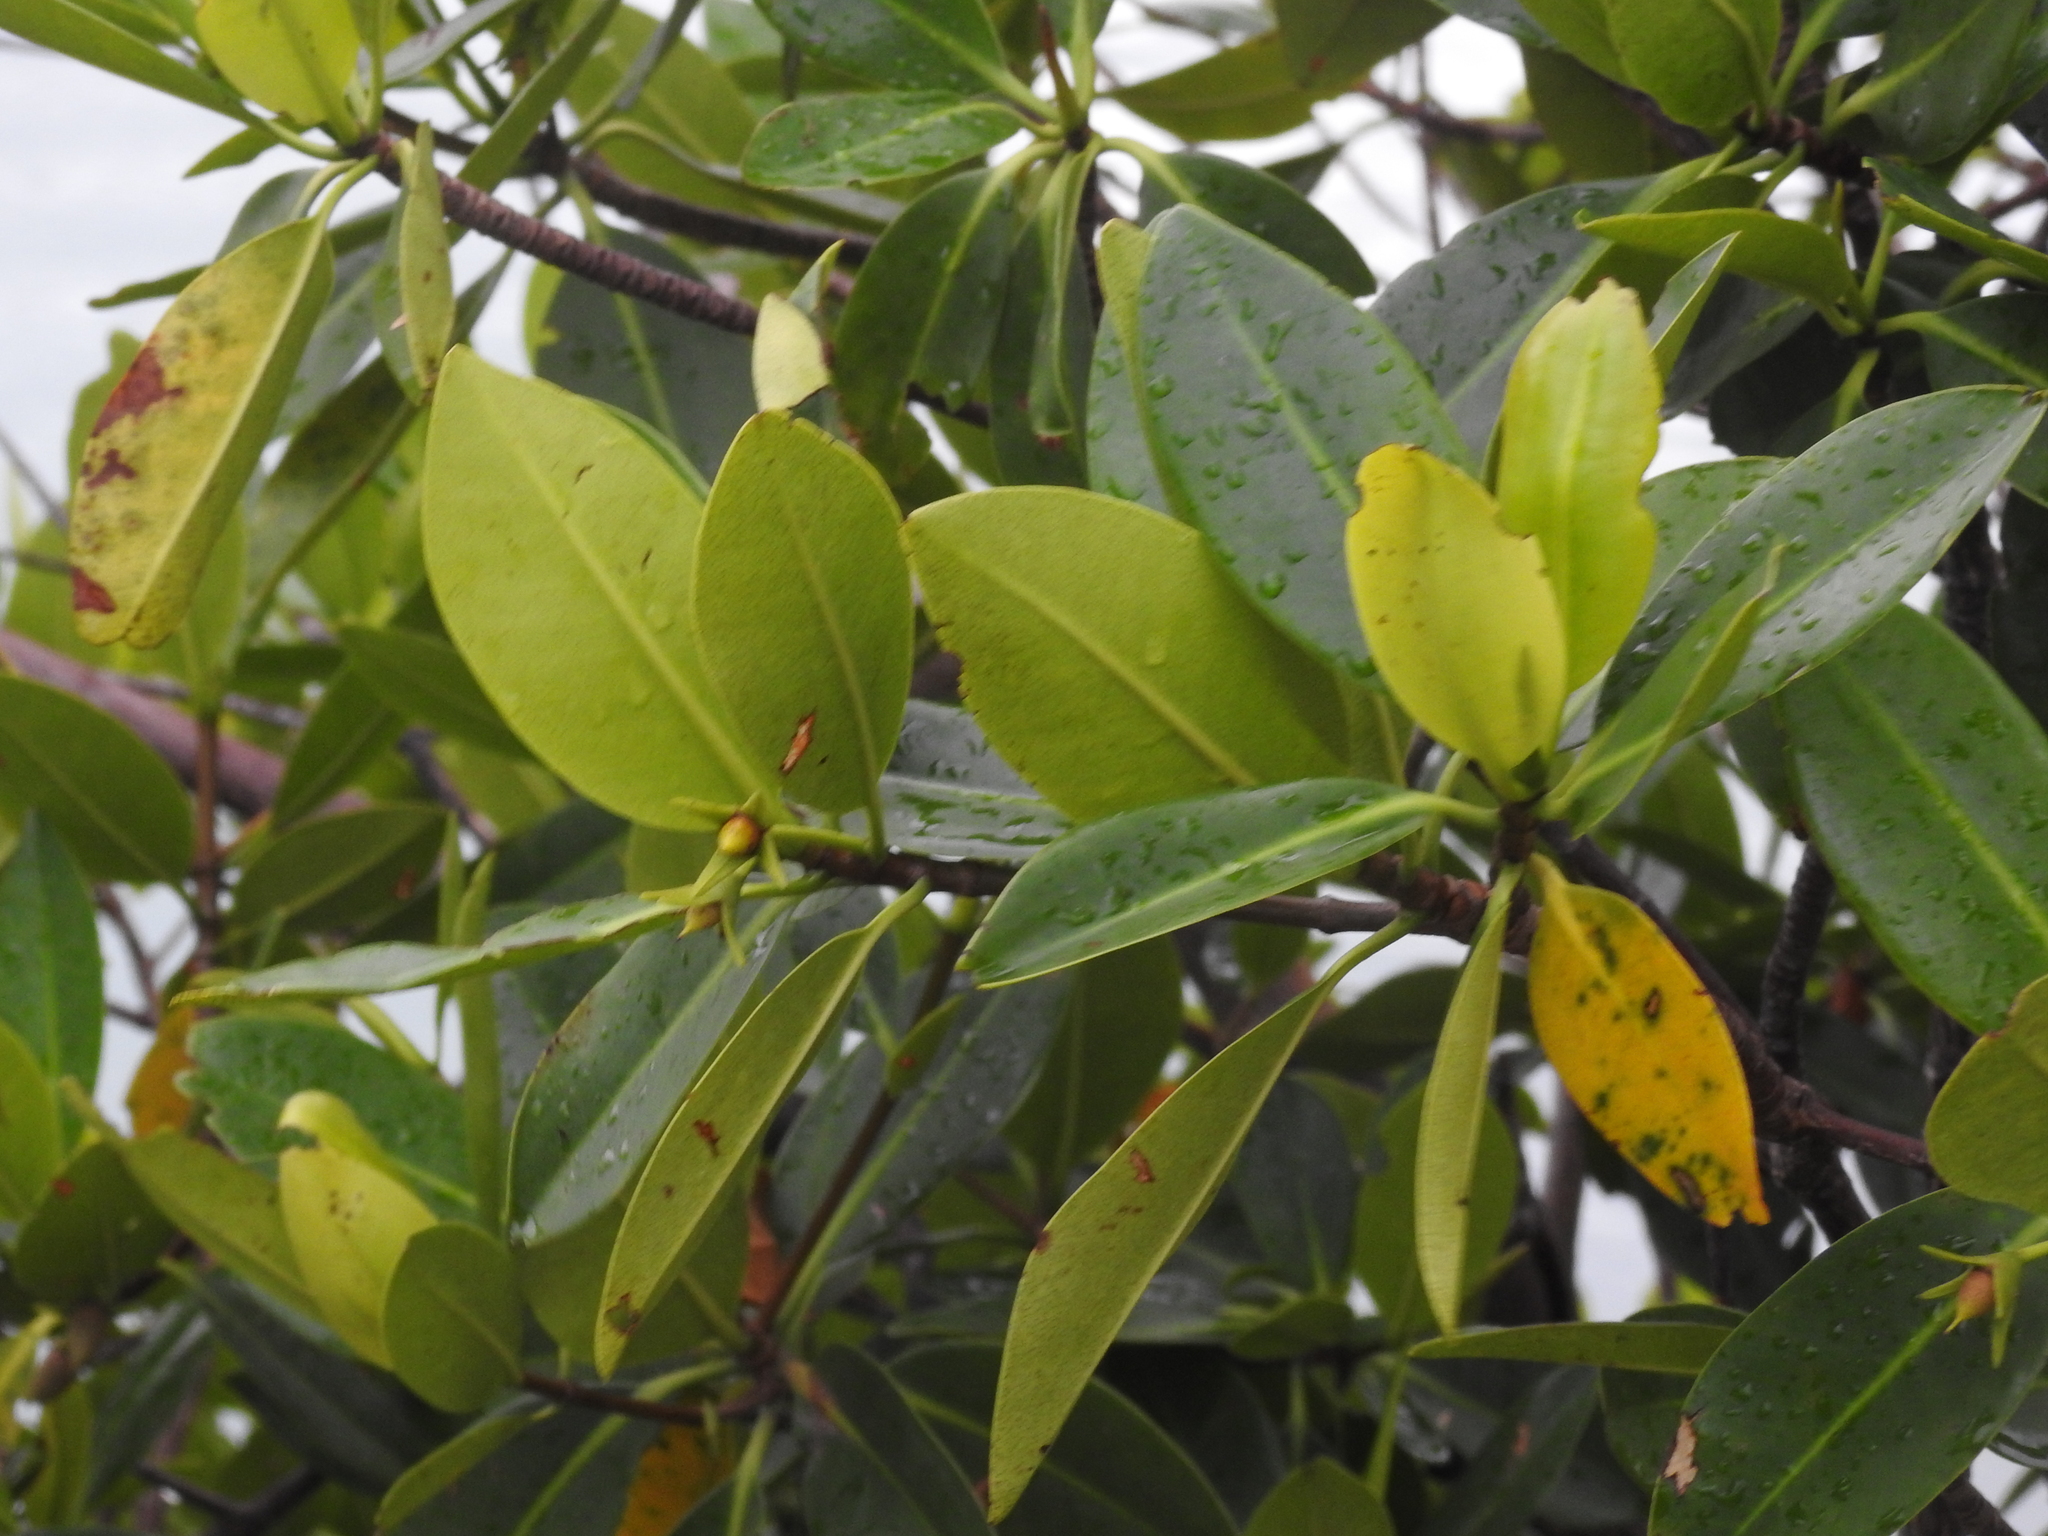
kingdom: Plantae
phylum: Tracheophyta
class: Magnoliopsida
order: Malpighiales
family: Rhizophoraceae
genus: Rhizophora
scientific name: Rhizophora mangle
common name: Red mangrove
